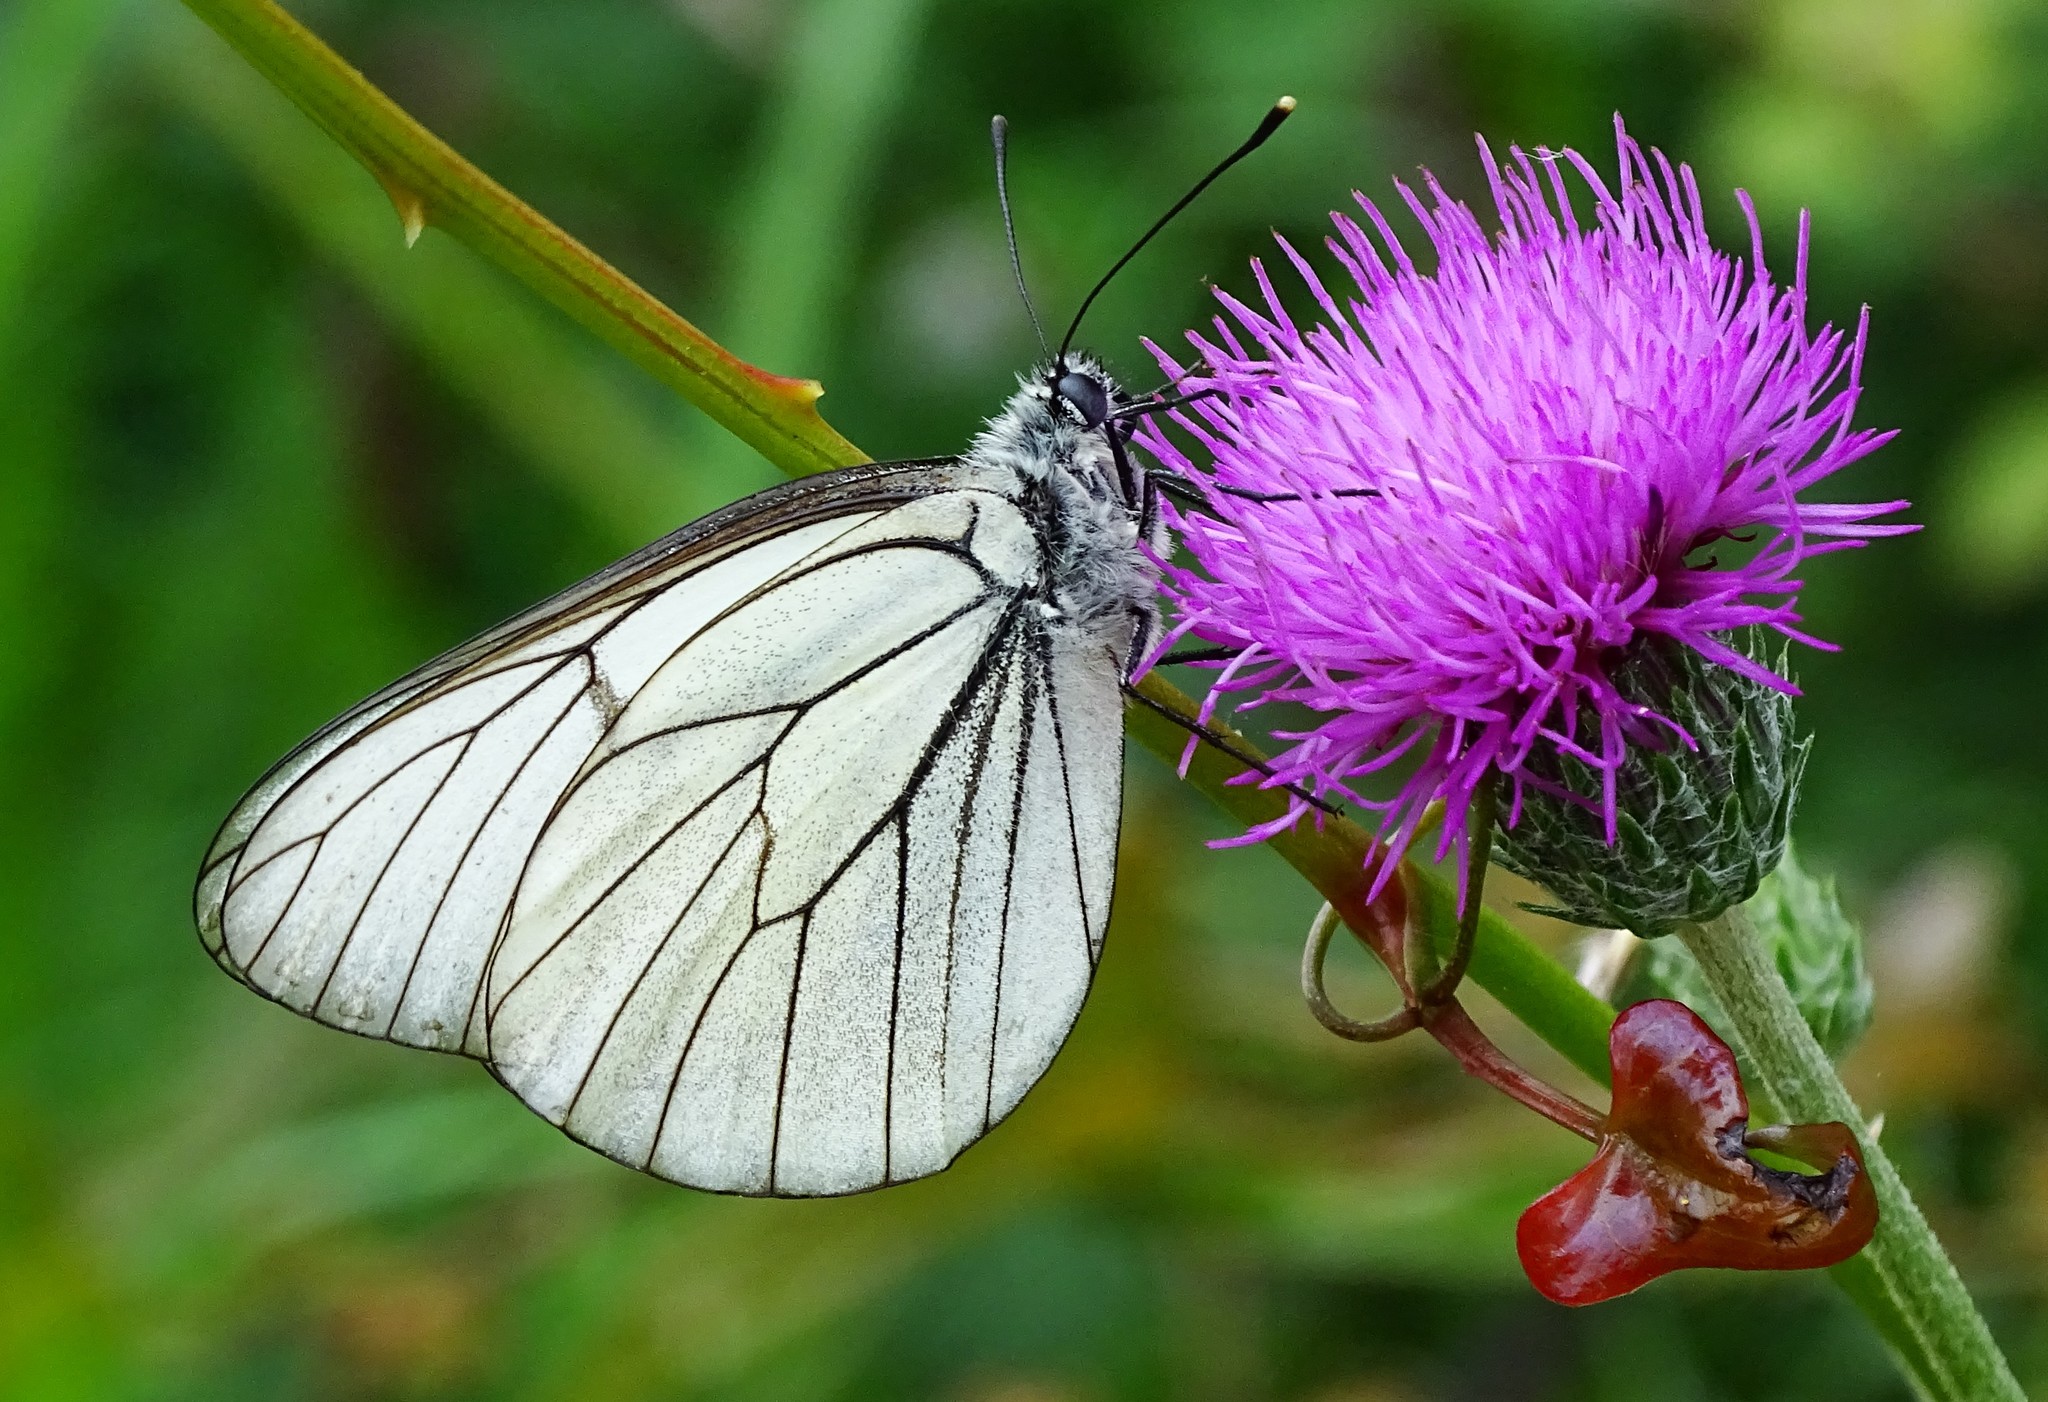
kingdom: Animalia
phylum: Arthropoda
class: Insecta
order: Lepidoptera
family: Pieridae
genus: Aporia
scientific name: Aporia crataegi
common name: Black-veined white
